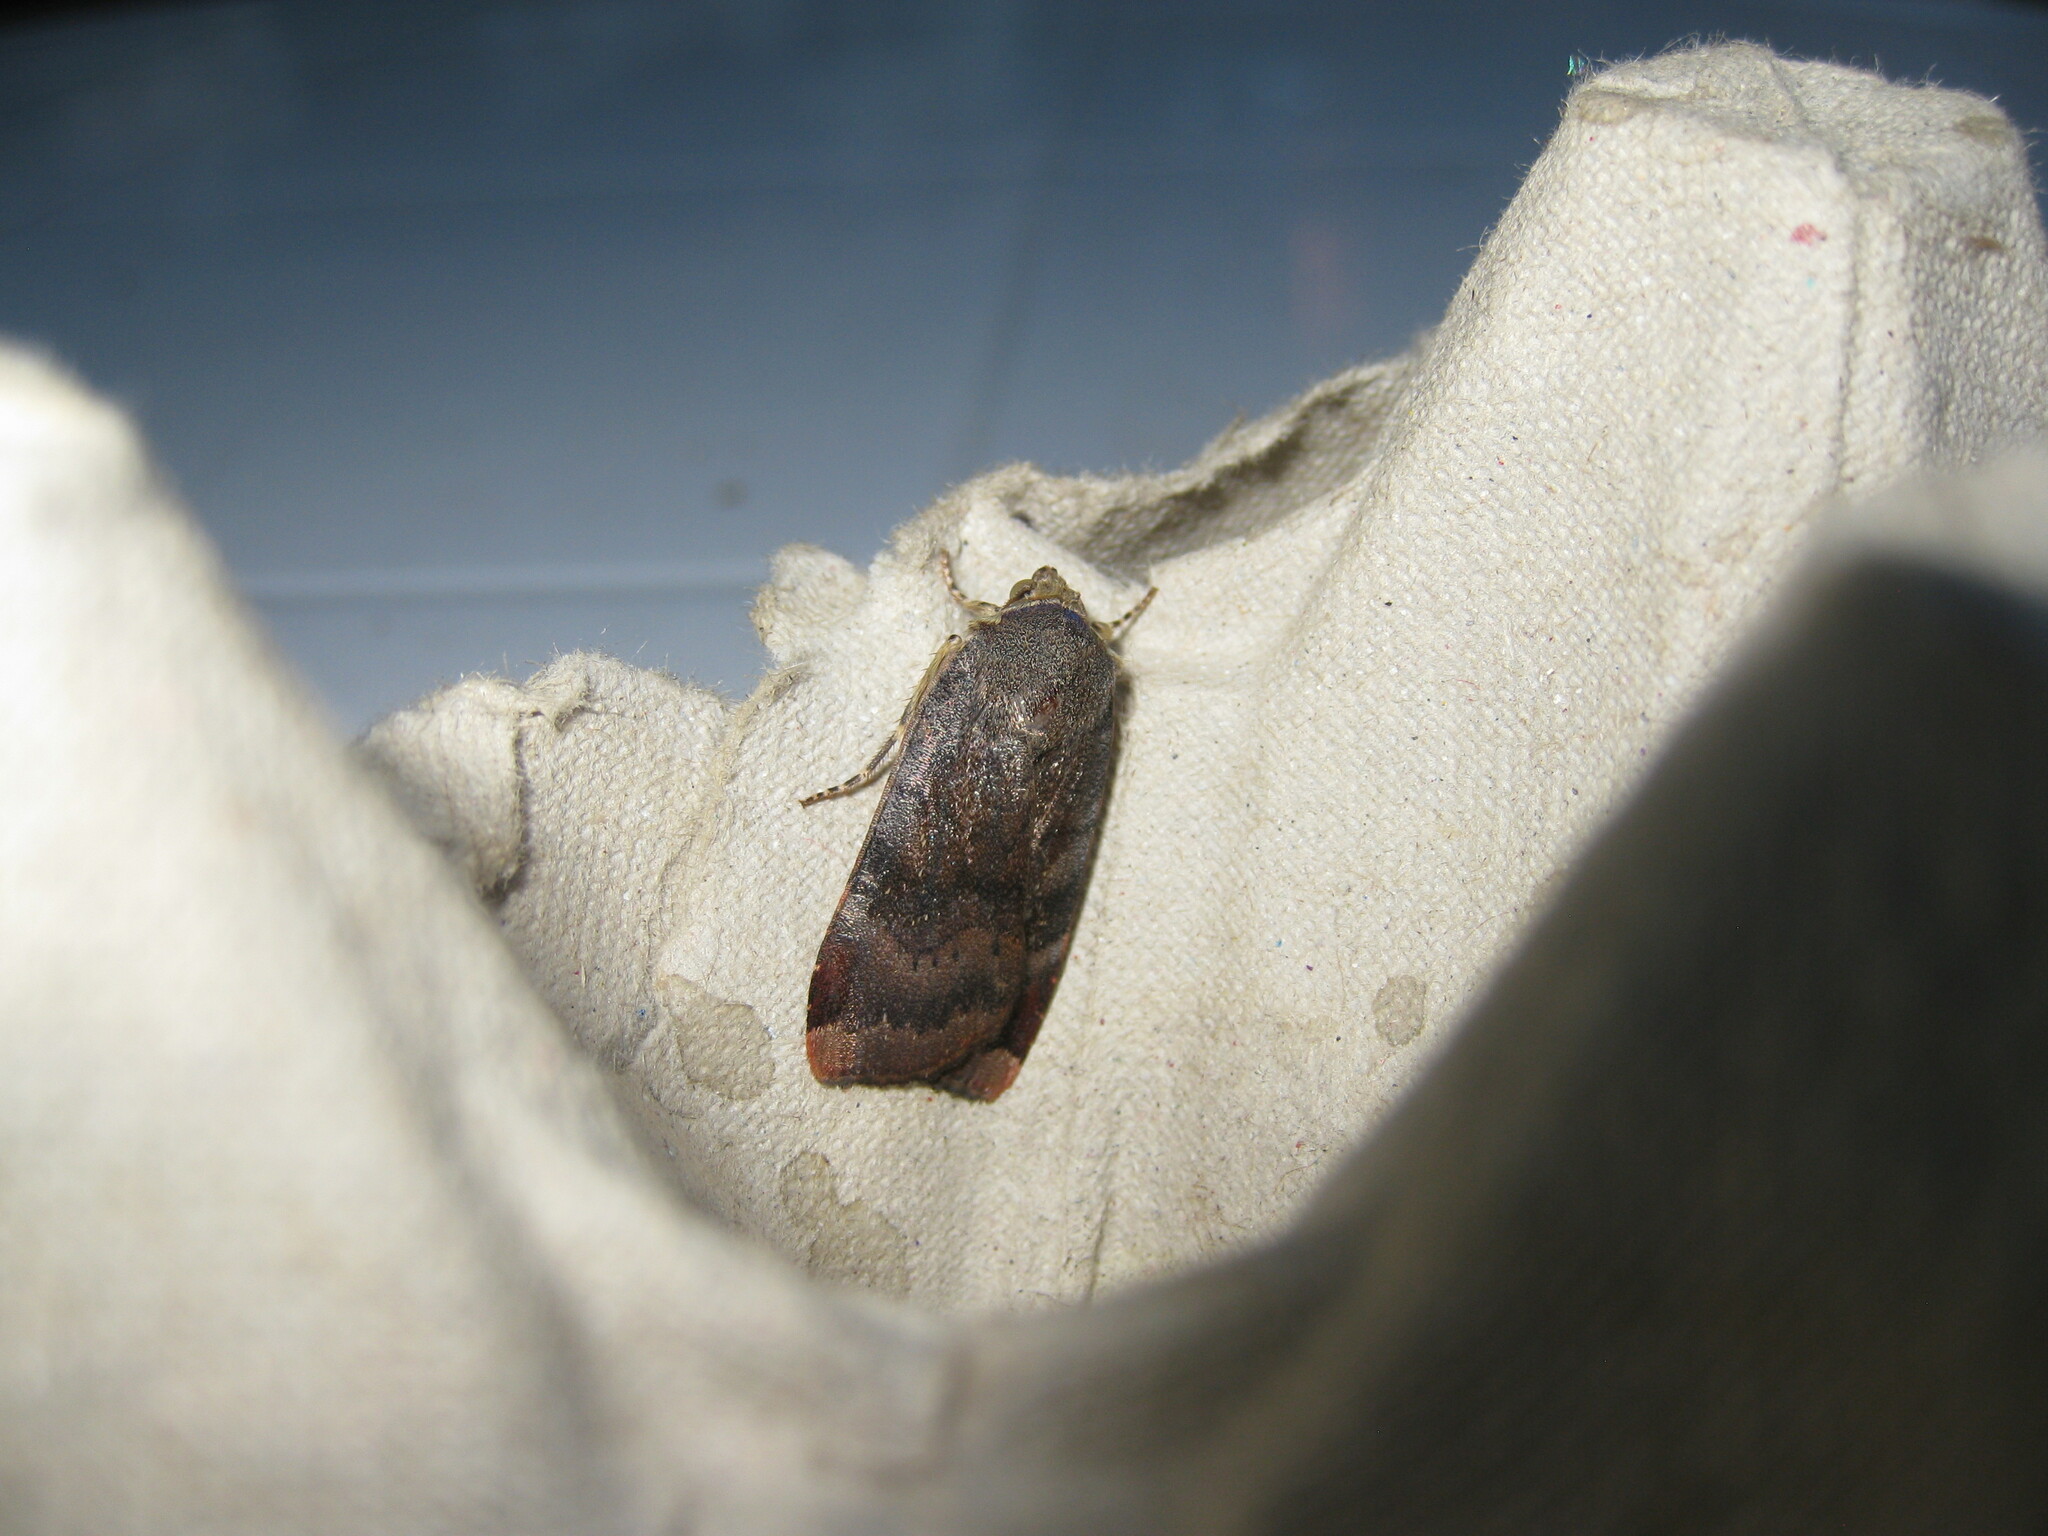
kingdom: Animalia
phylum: Arthropoda
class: Insecta
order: Lepidoptera
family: Noctuidae
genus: Noctua
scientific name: Noctua janthe
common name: Lesser broad-bordered yellow underwing
